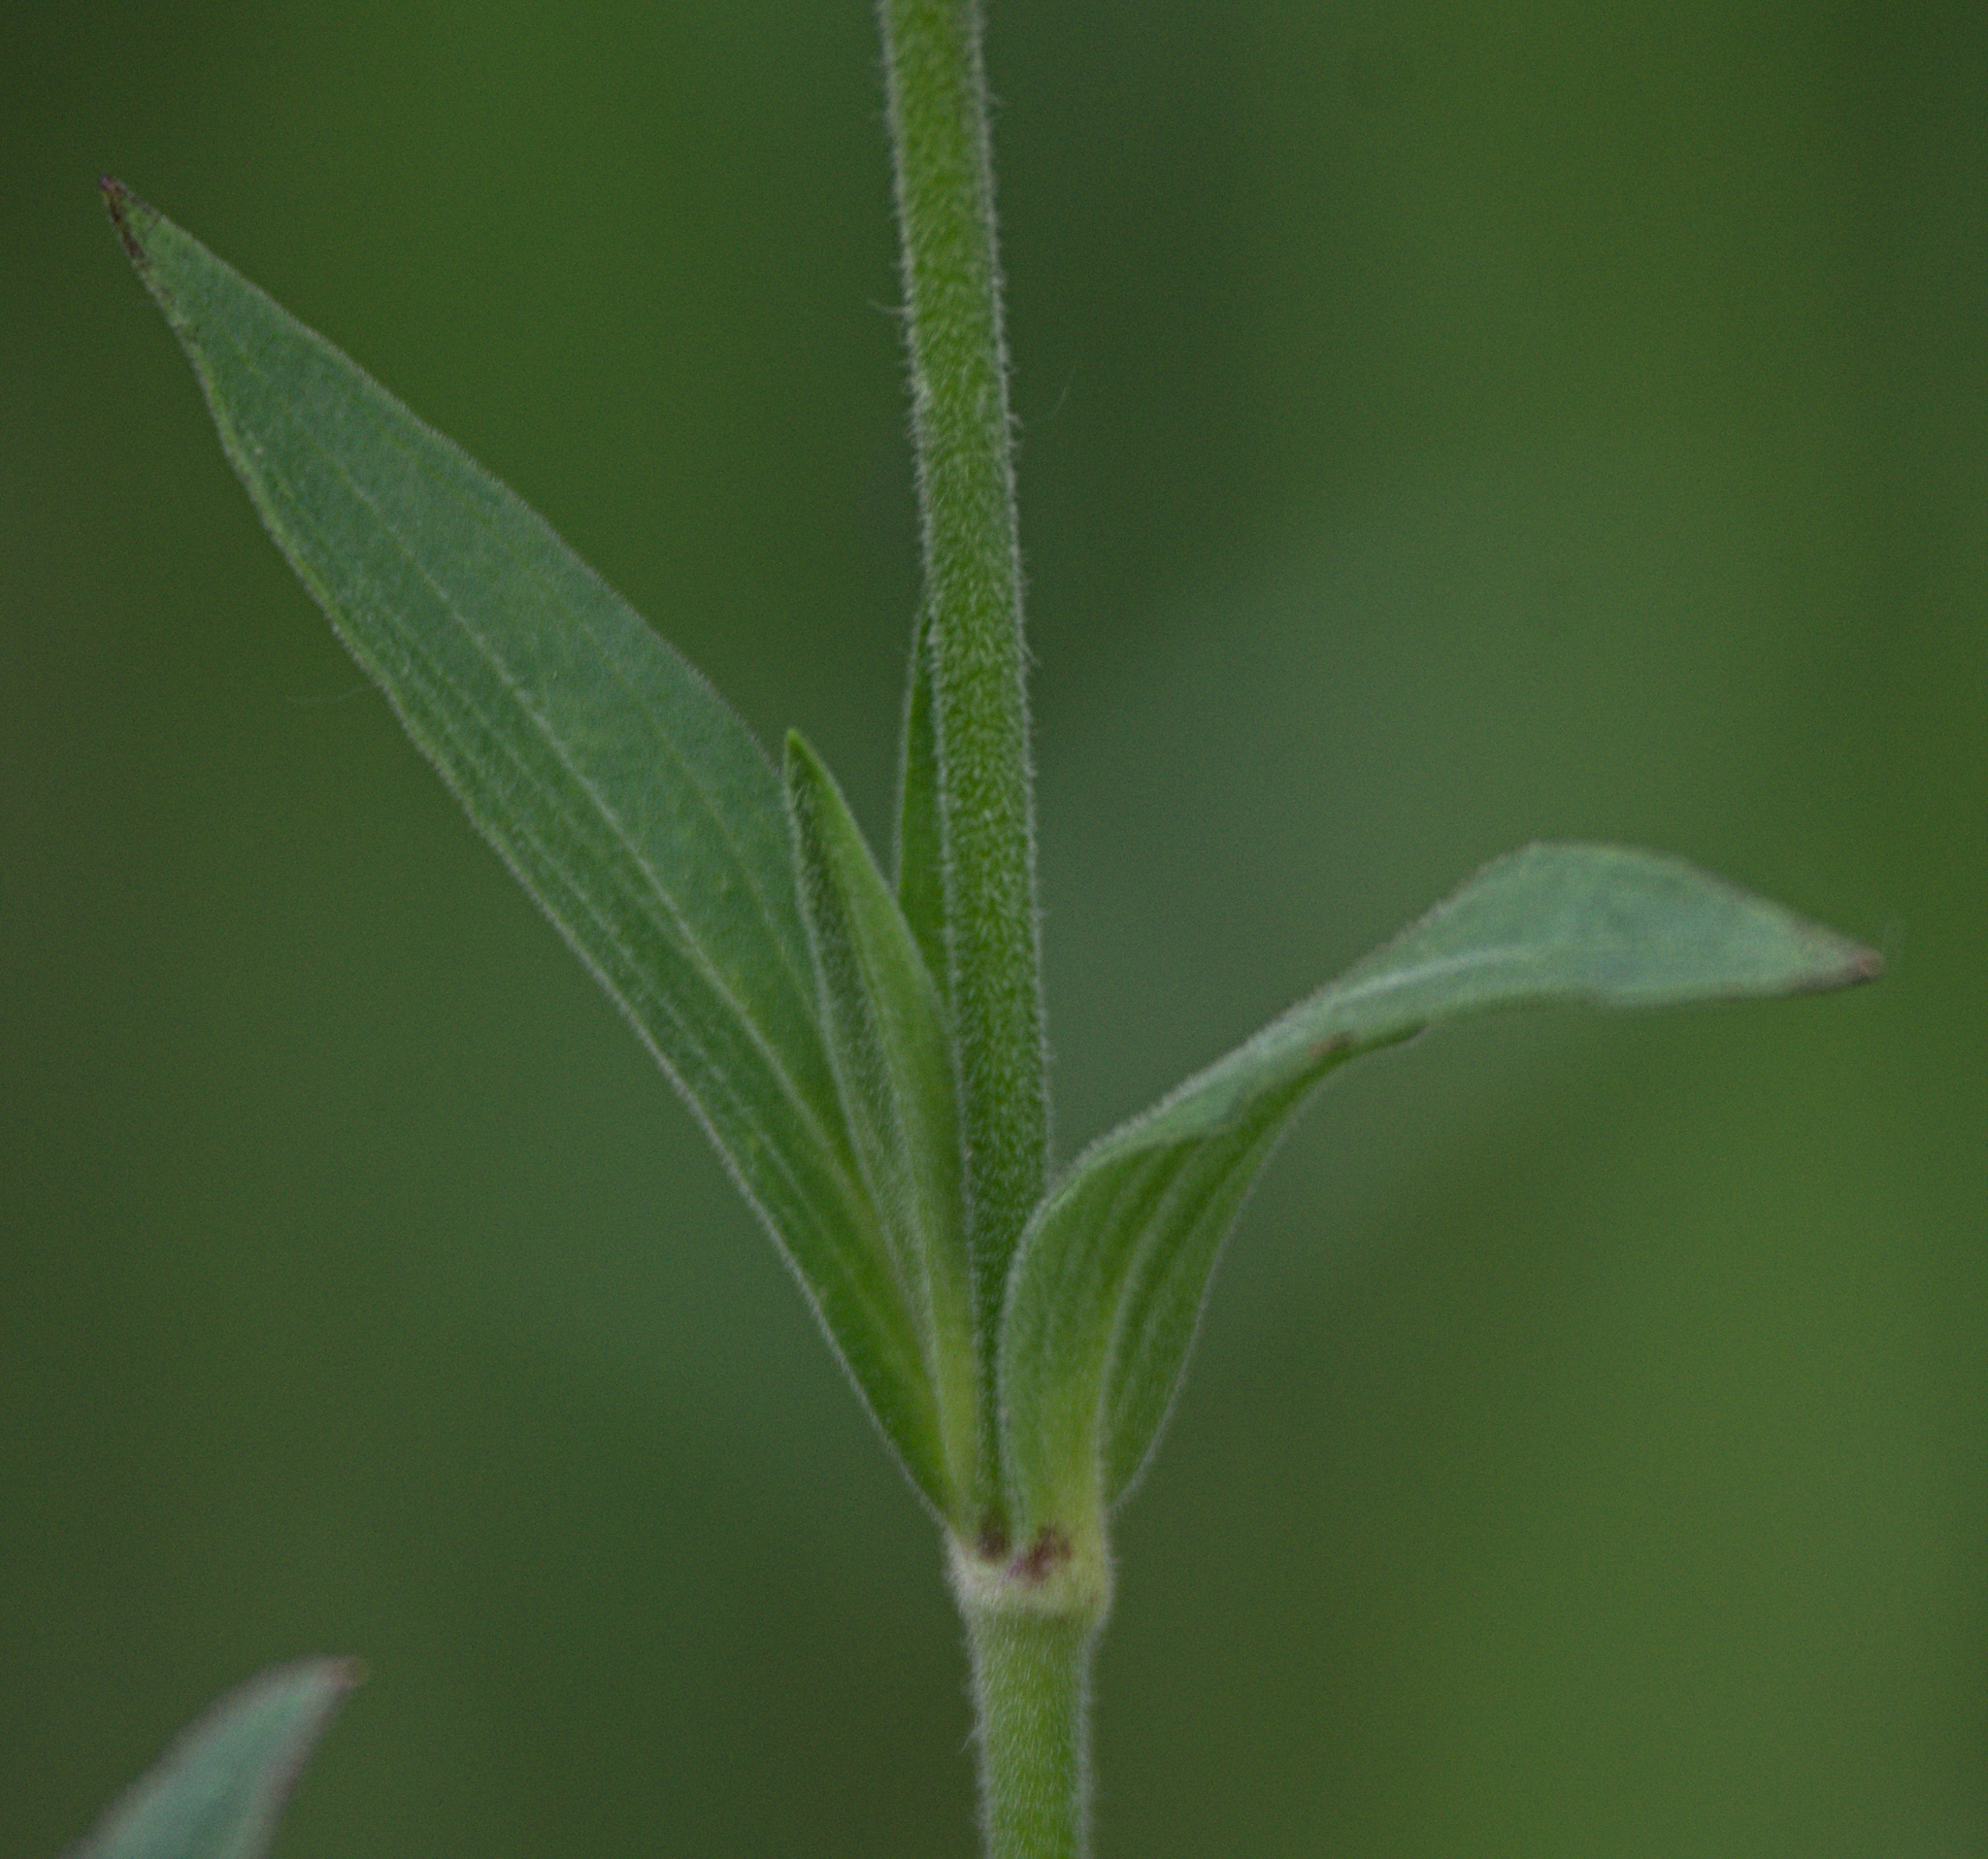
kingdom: Plantae
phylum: Tracheophyta
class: Magnoliopsida
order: Caryophyllales
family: Caryophyllaceae
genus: Silene
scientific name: Silene latifolia
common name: White campion
